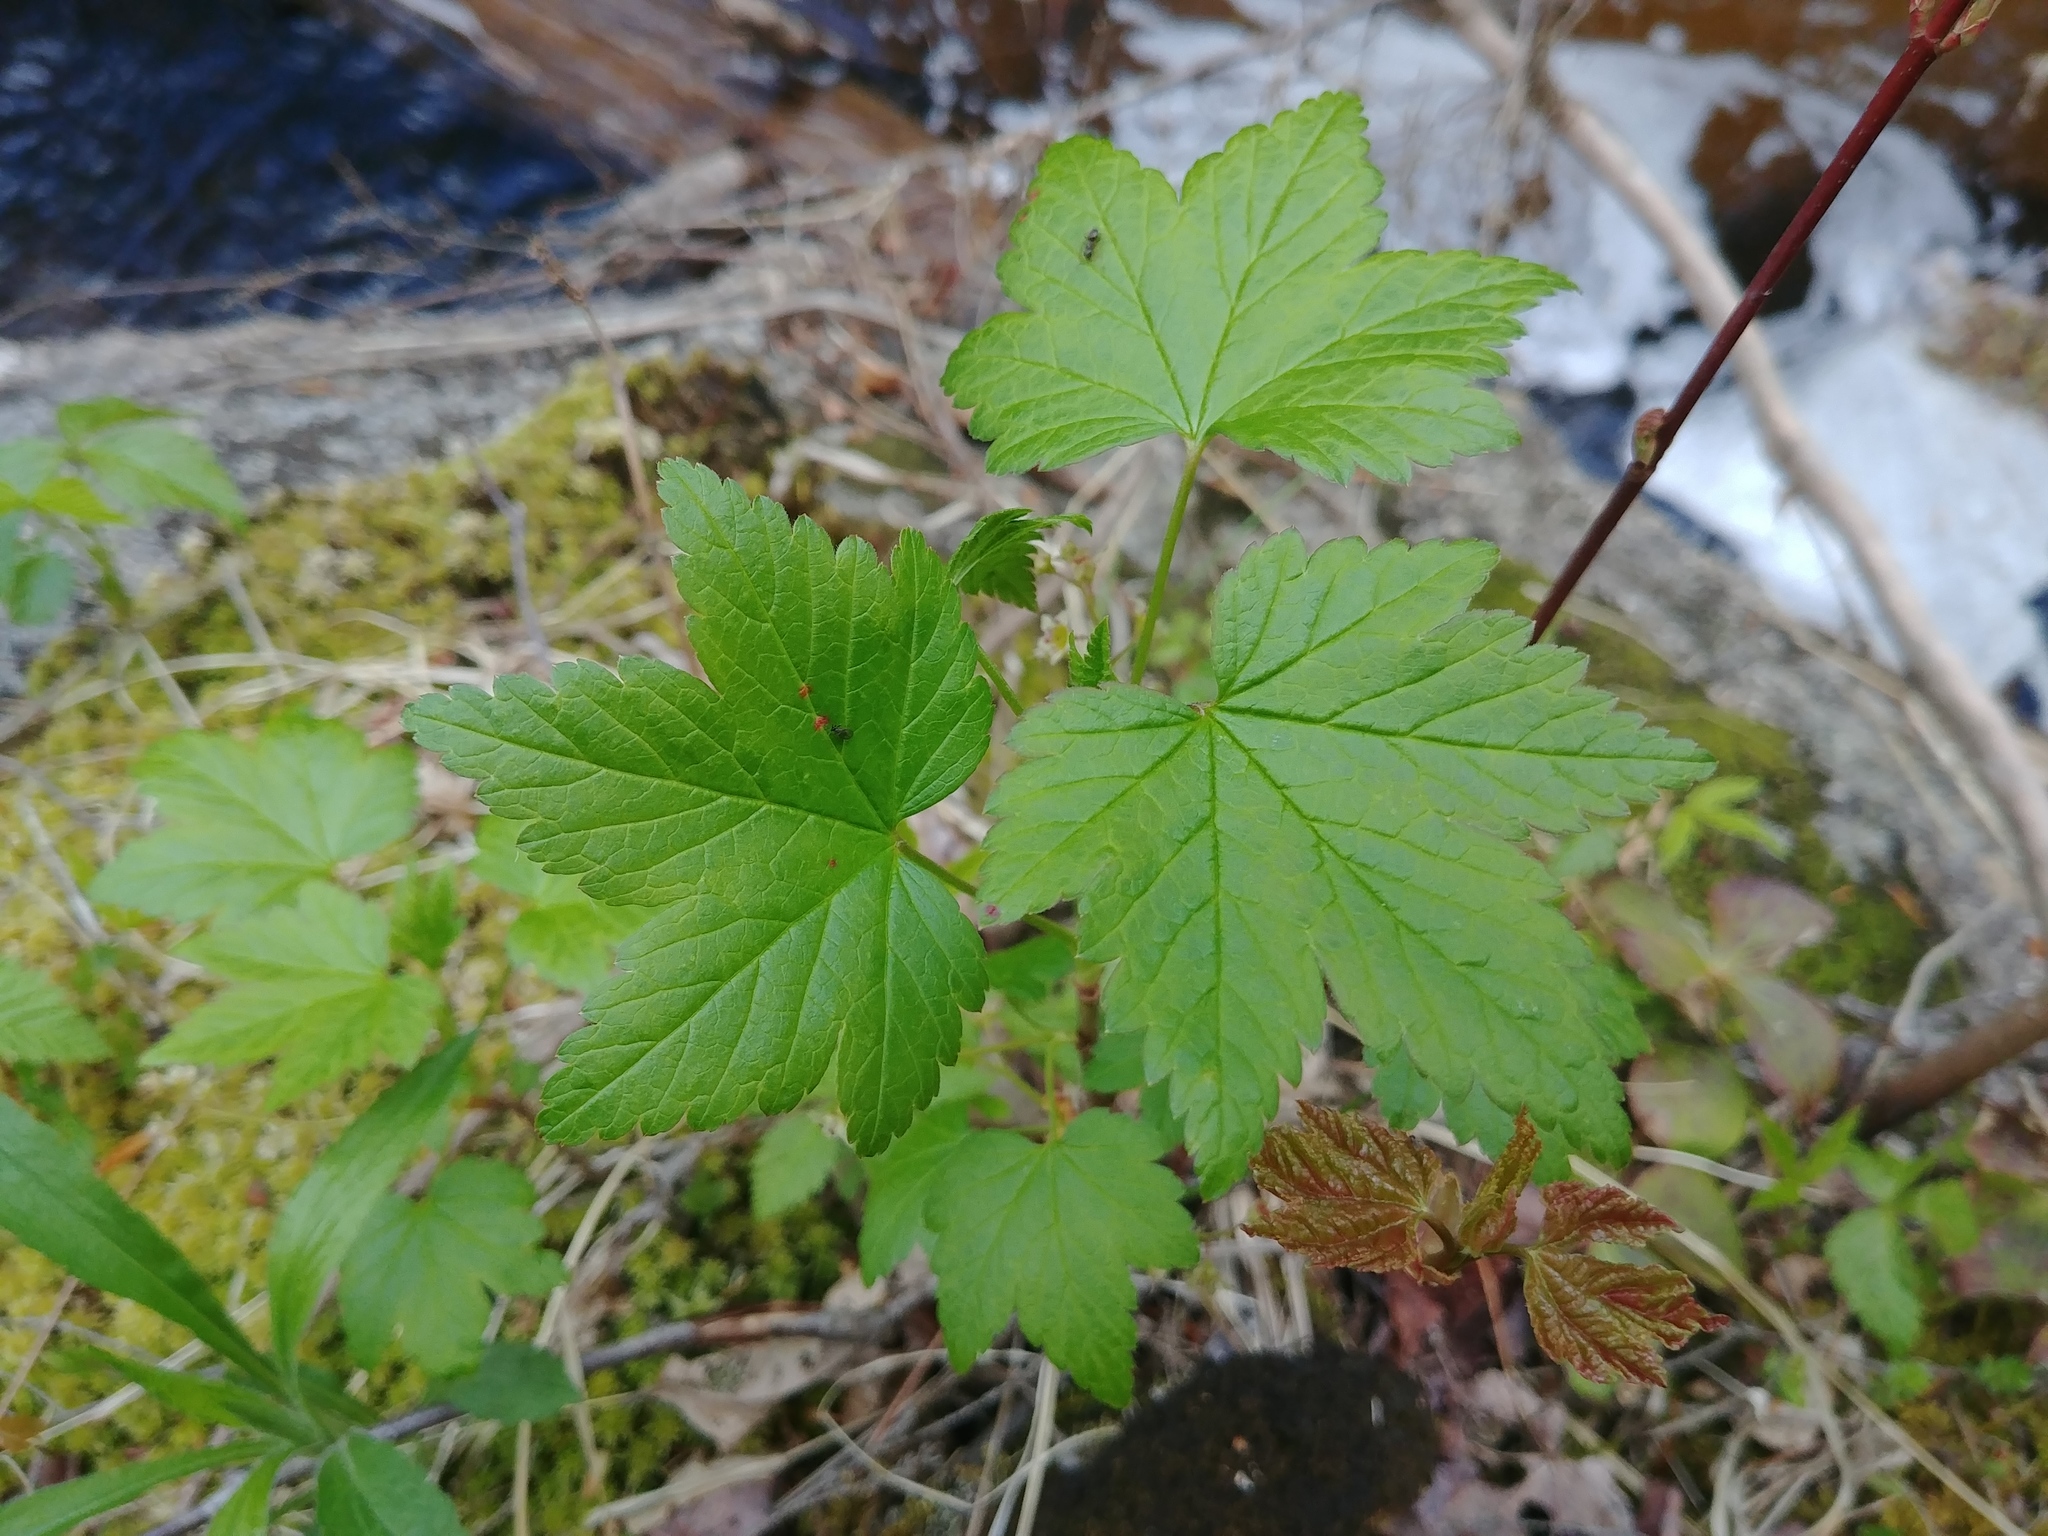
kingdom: Plantae
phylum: Tracheophyta
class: Magnoliopsida
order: Saxifragales
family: Grossulariaceae
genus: Ribes
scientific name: Ribes glandulosum
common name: Skunk currant
